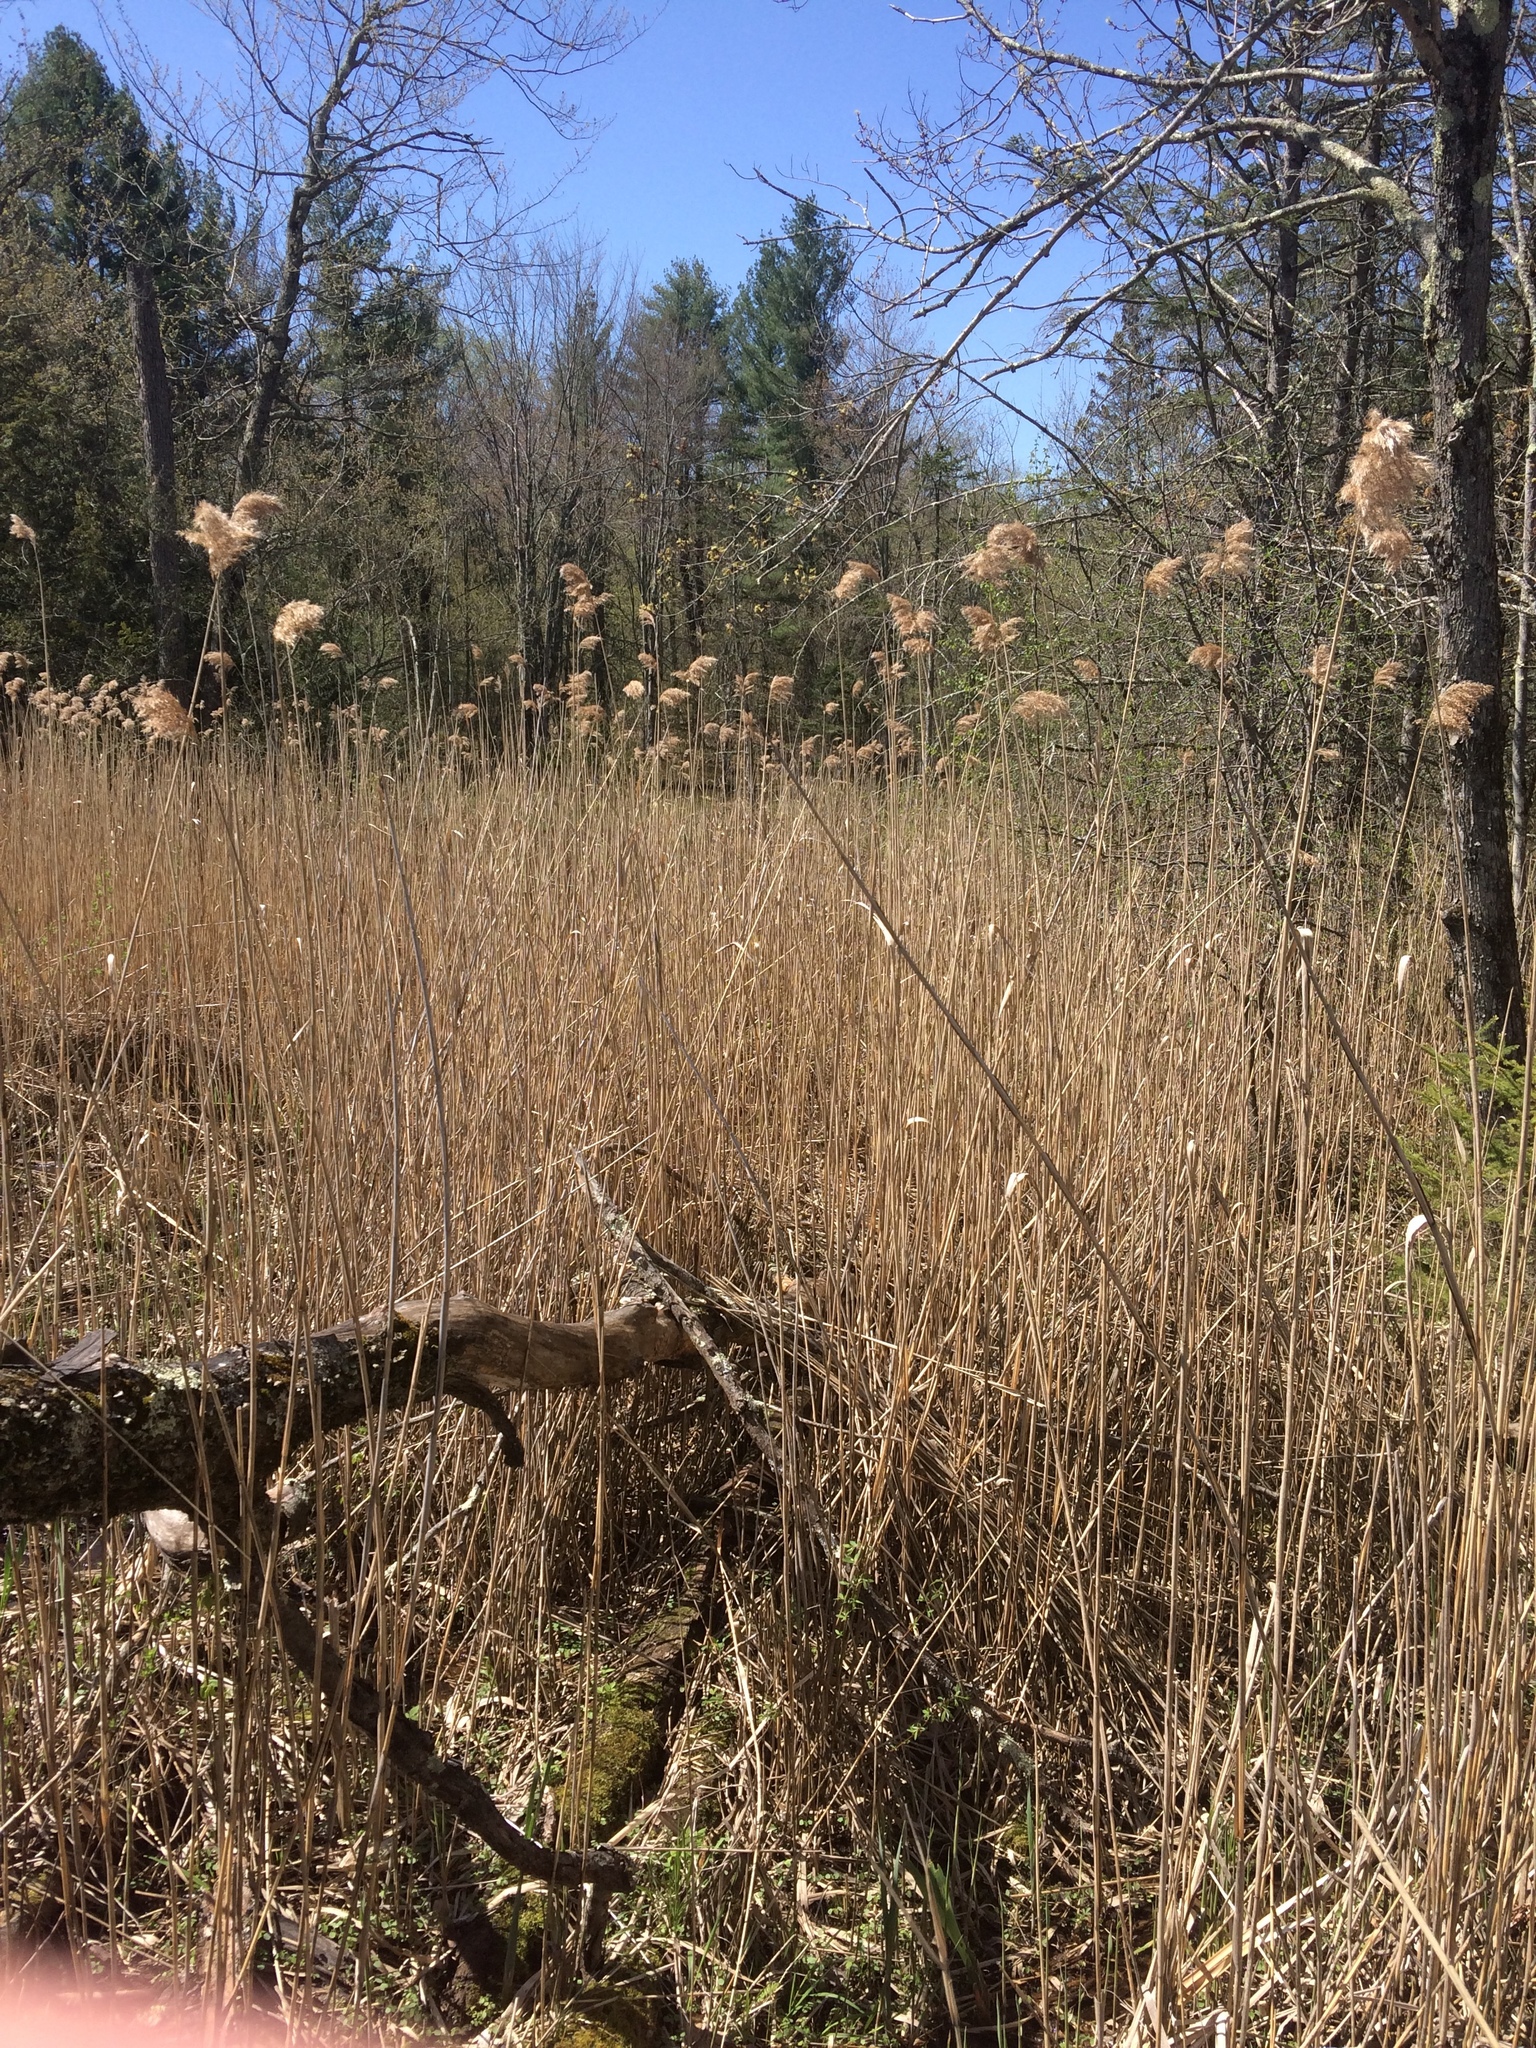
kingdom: Plantae
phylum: Tracheophyta
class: Liliopsida
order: Poales
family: Poaceae
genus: Phragmites
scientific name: Phragmites australis
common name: Common reed
